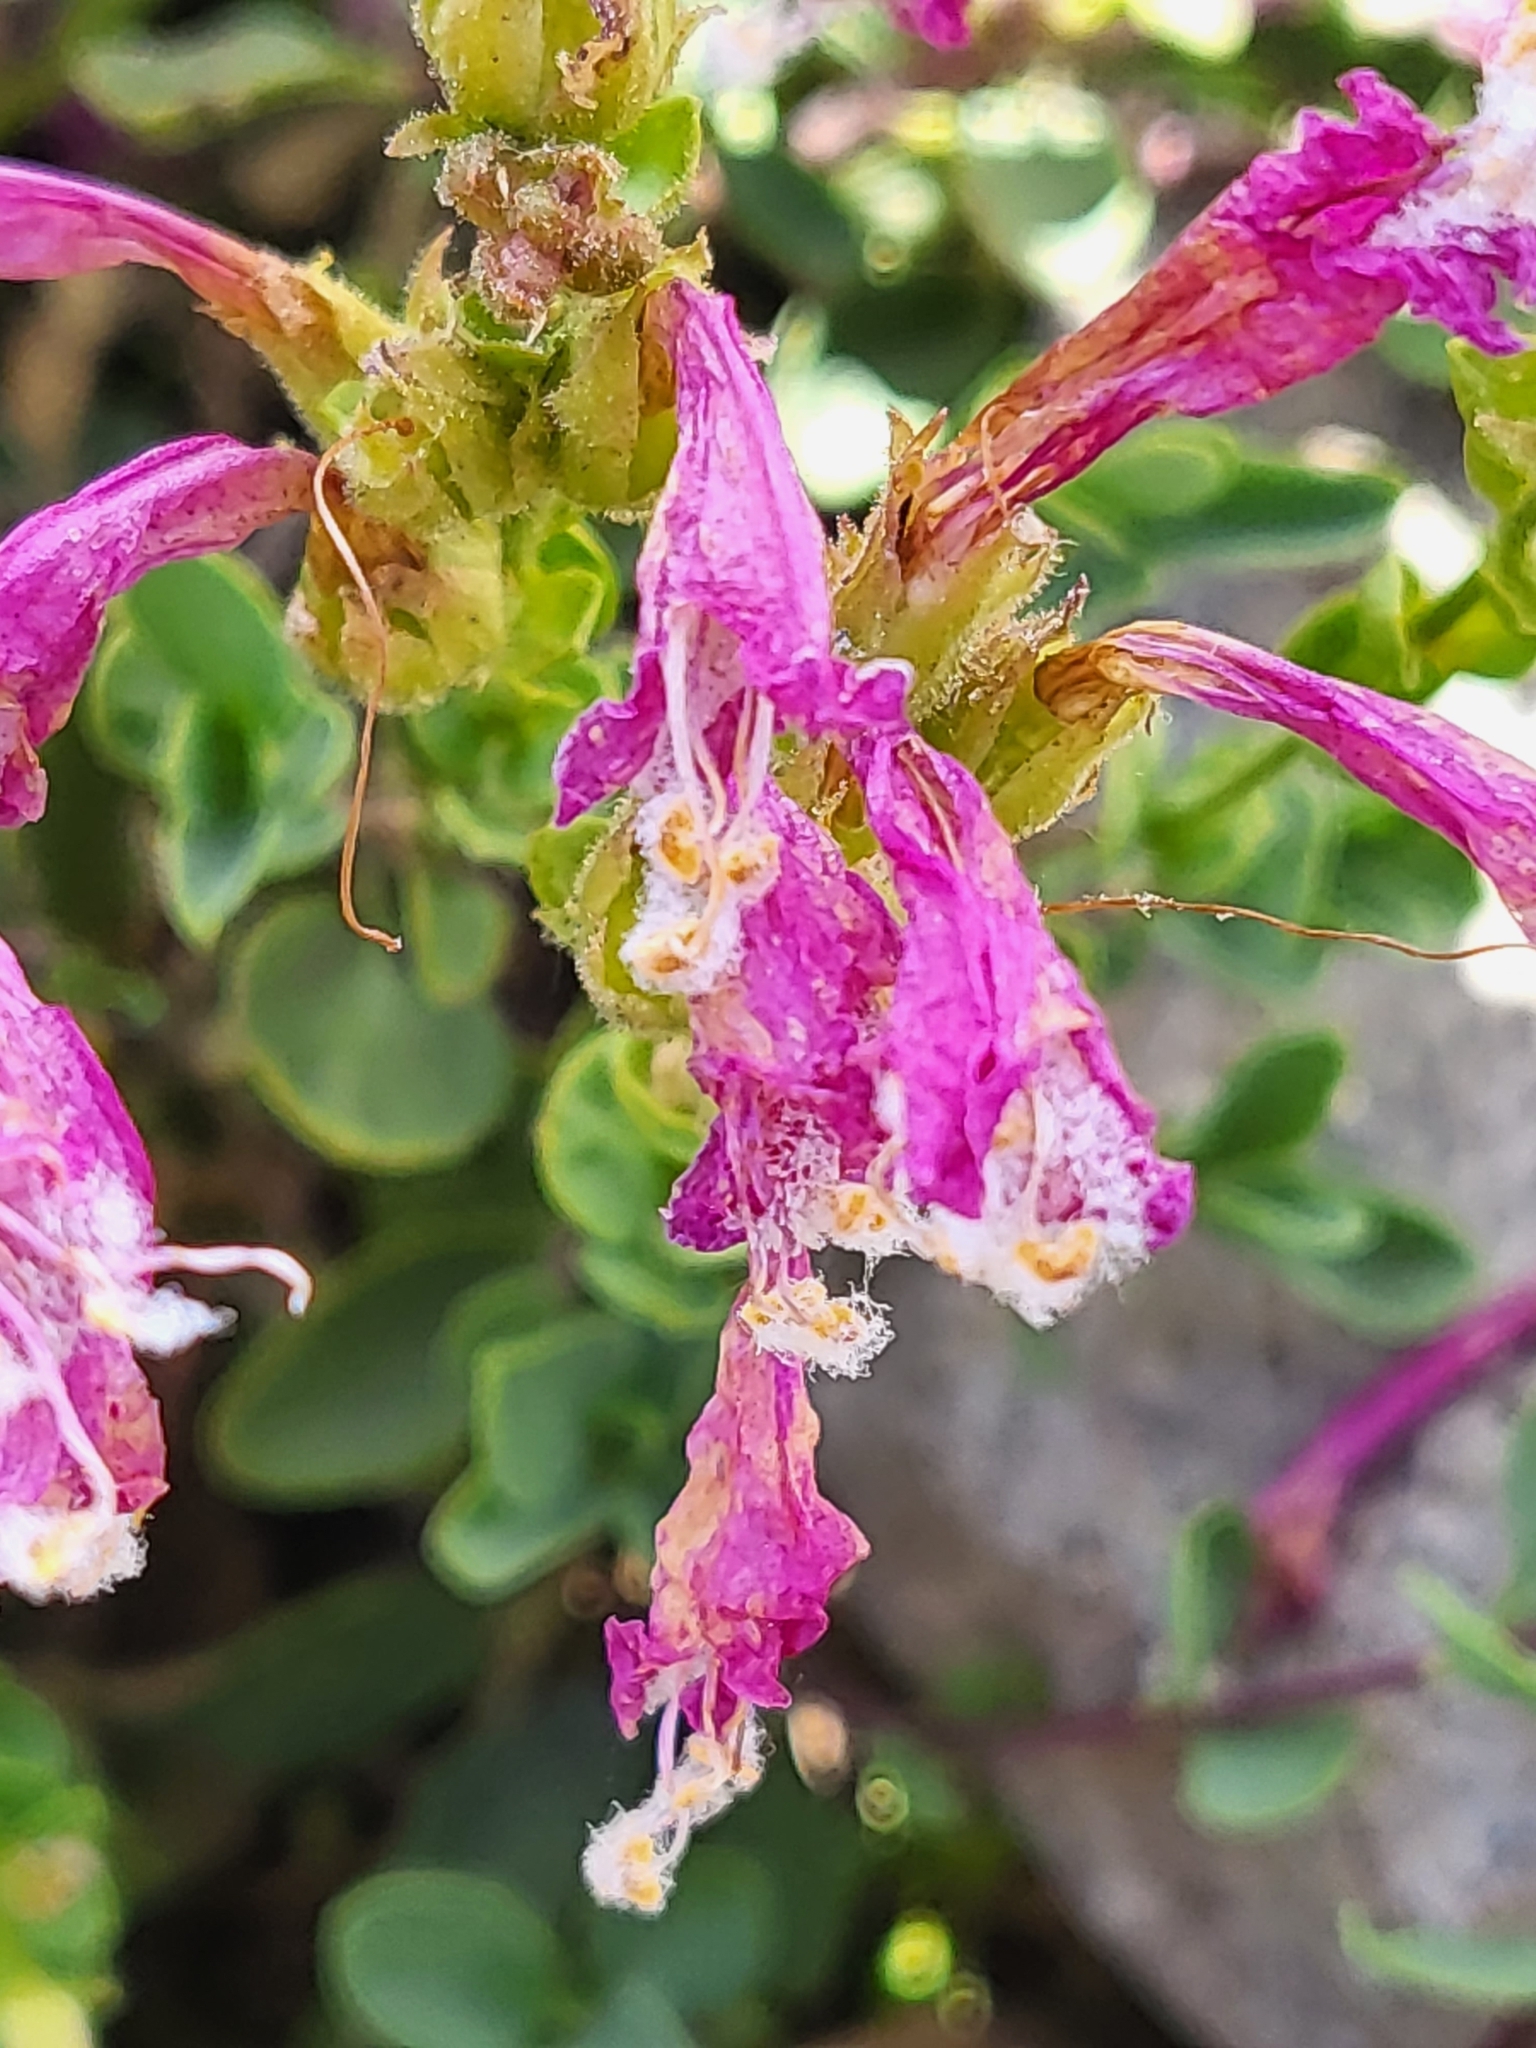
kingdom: Plantae
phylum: Tracheophyta
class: Magnoliopsida
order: Lamiales
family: Plantaginaceae
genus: Penstemon
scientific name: Penstemon newberryi
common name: Mountain-pride
